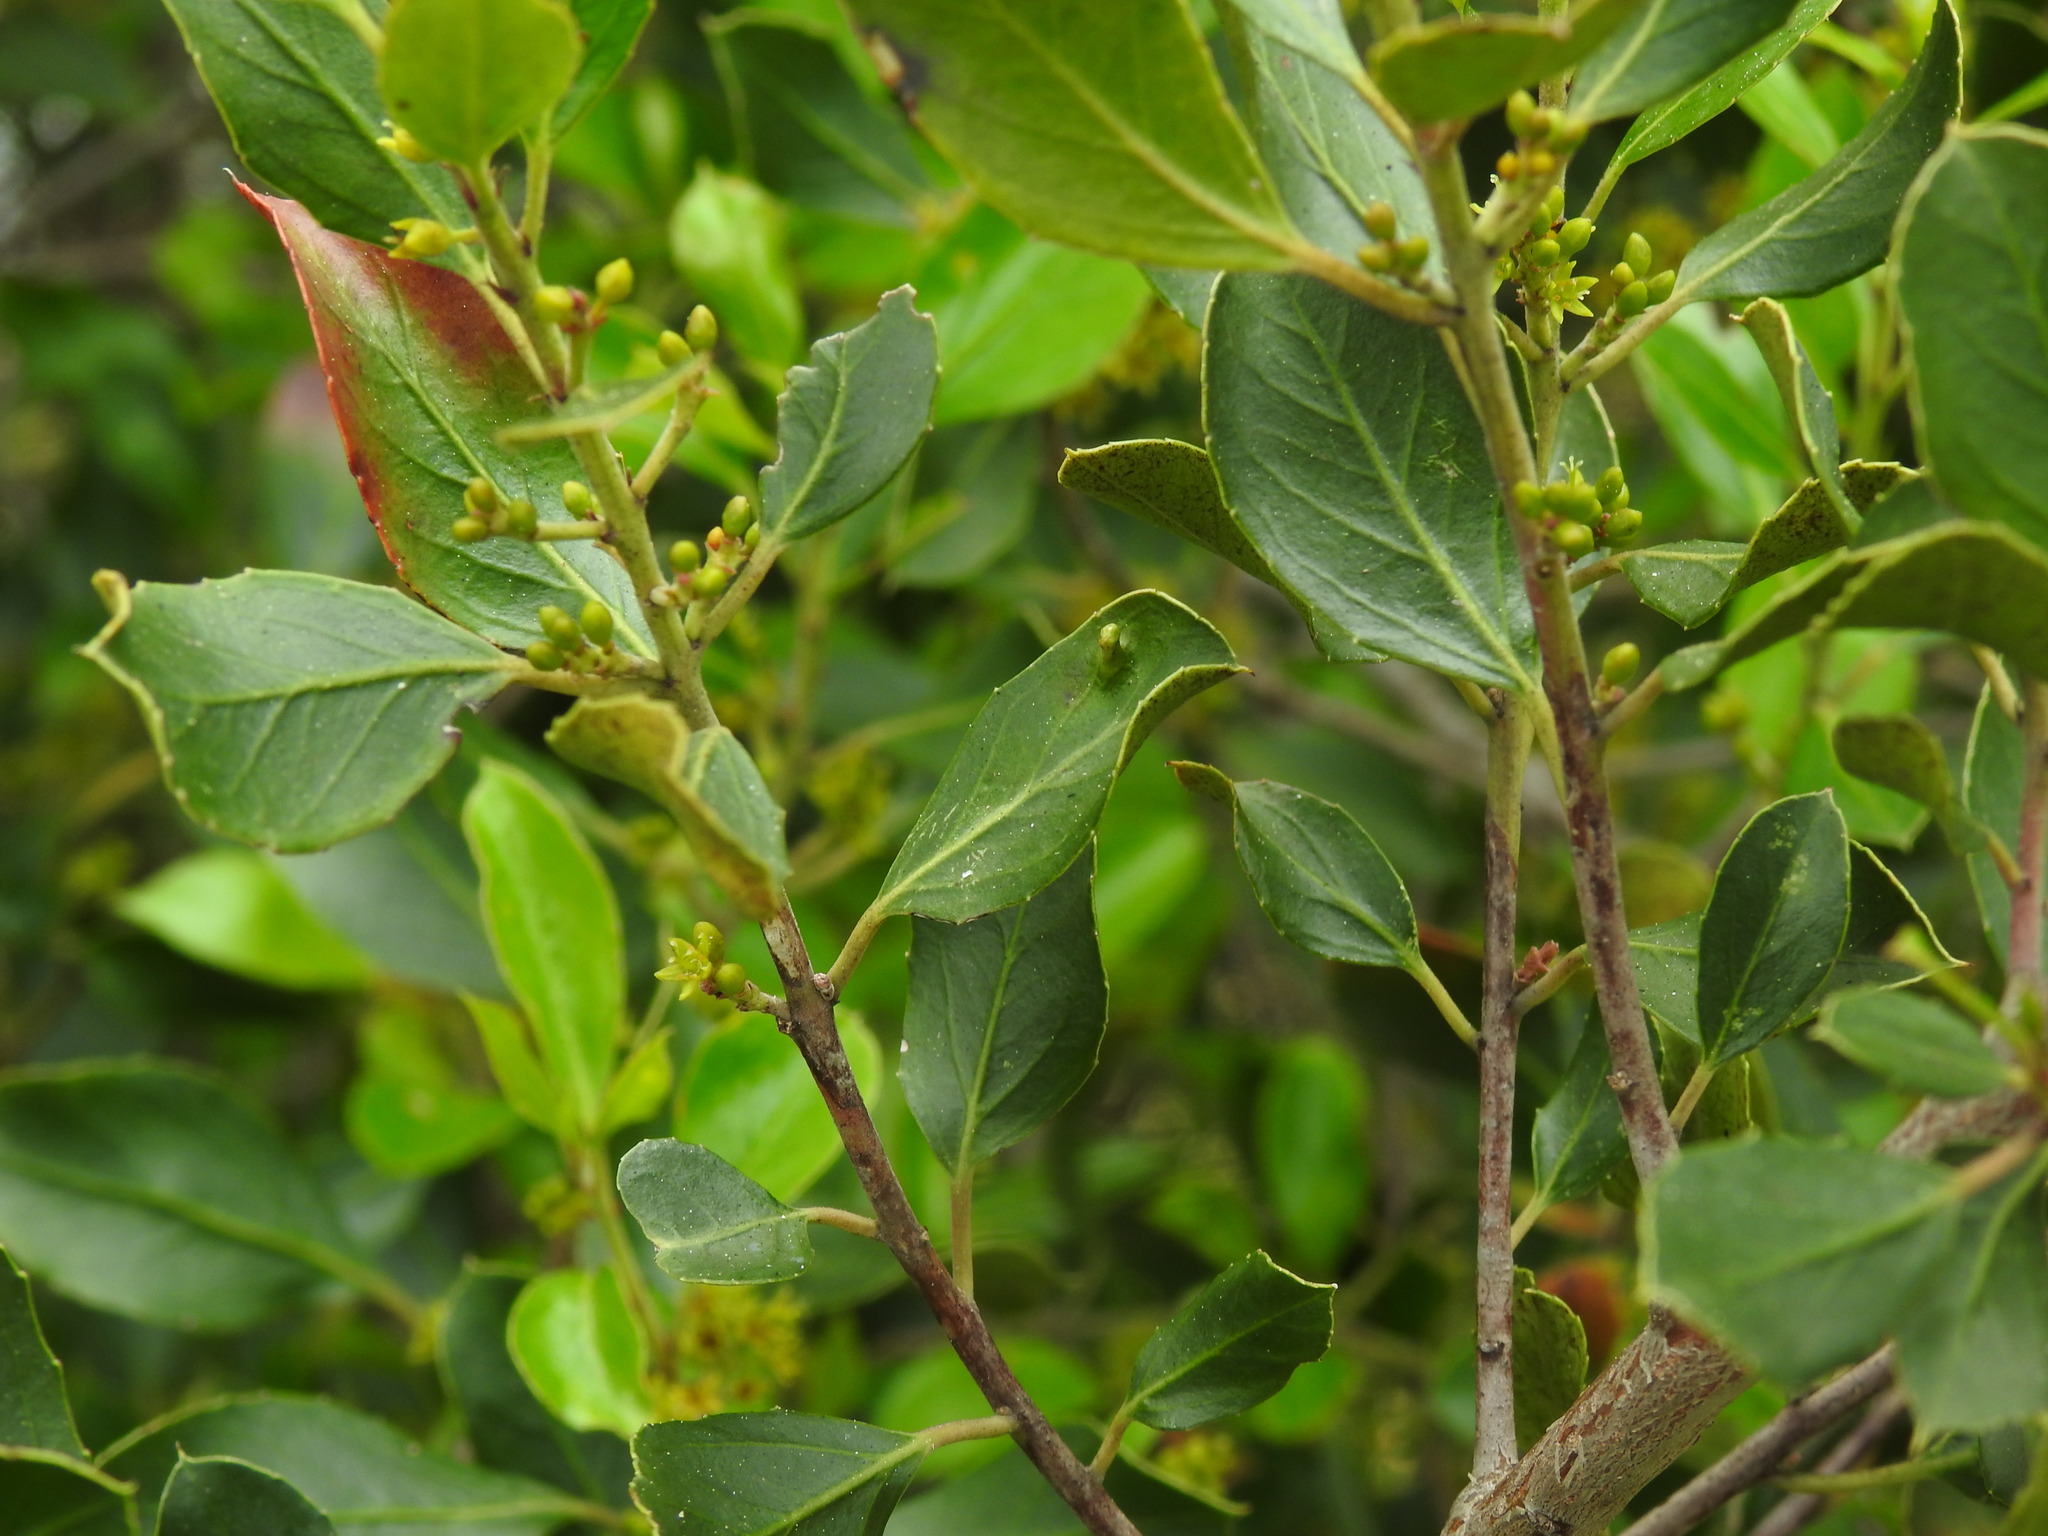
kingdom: Animalia
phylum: Arthropoda
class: Insecta
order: Hemiptera
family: Triozidae
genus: Trioza
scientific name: Trioza kiefferi
